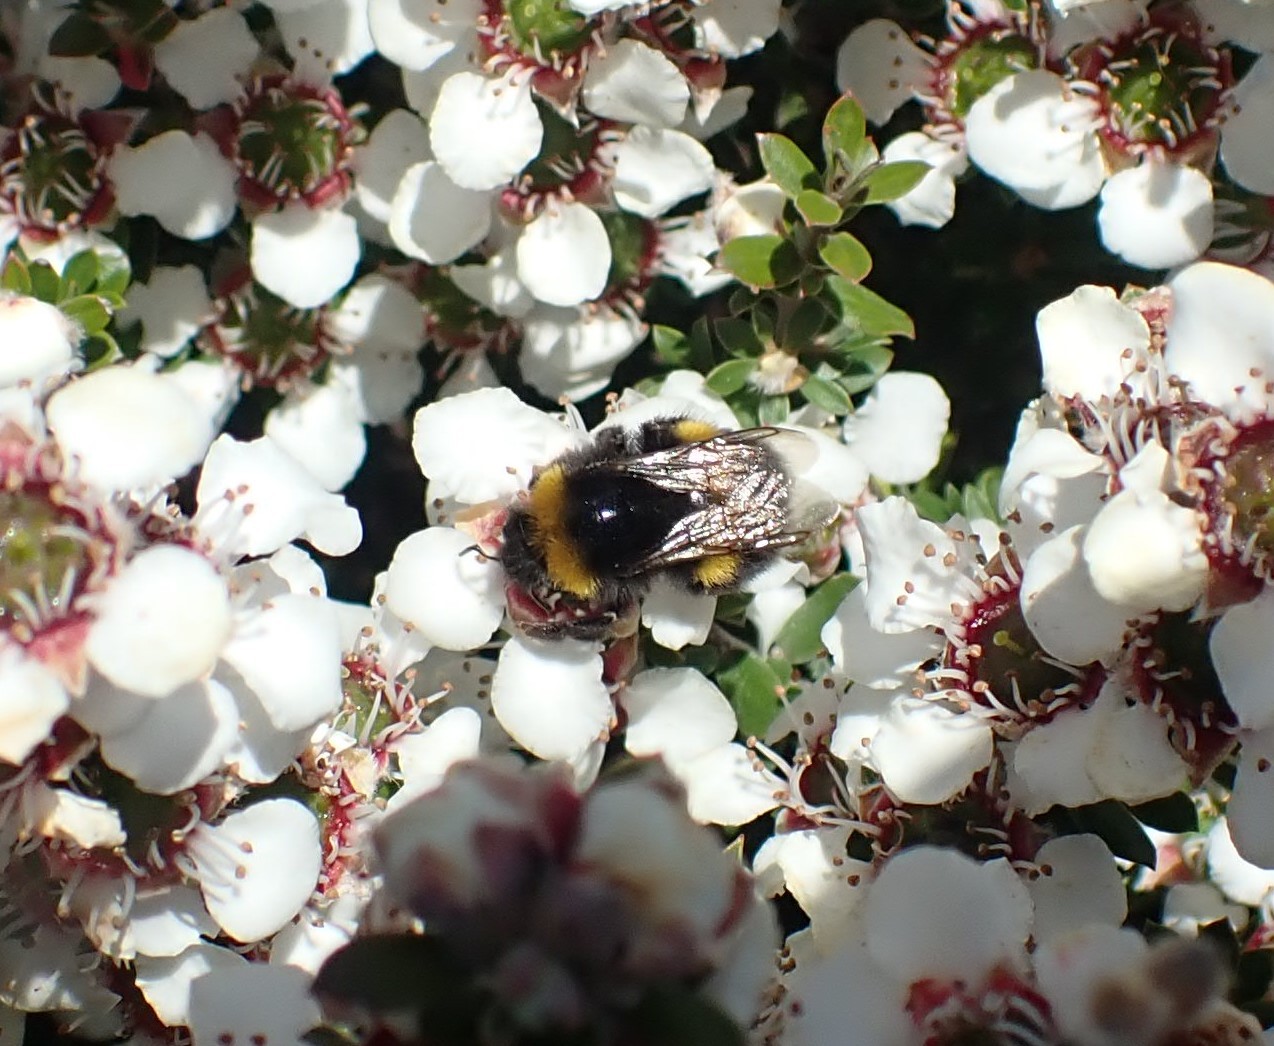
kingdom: Animalia
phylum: Arthropoda
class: Insecta
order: Hymenoptera
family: Apidae
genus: Bombus
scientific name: Bombus terrestris
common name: Buff-tailed bumblebee
